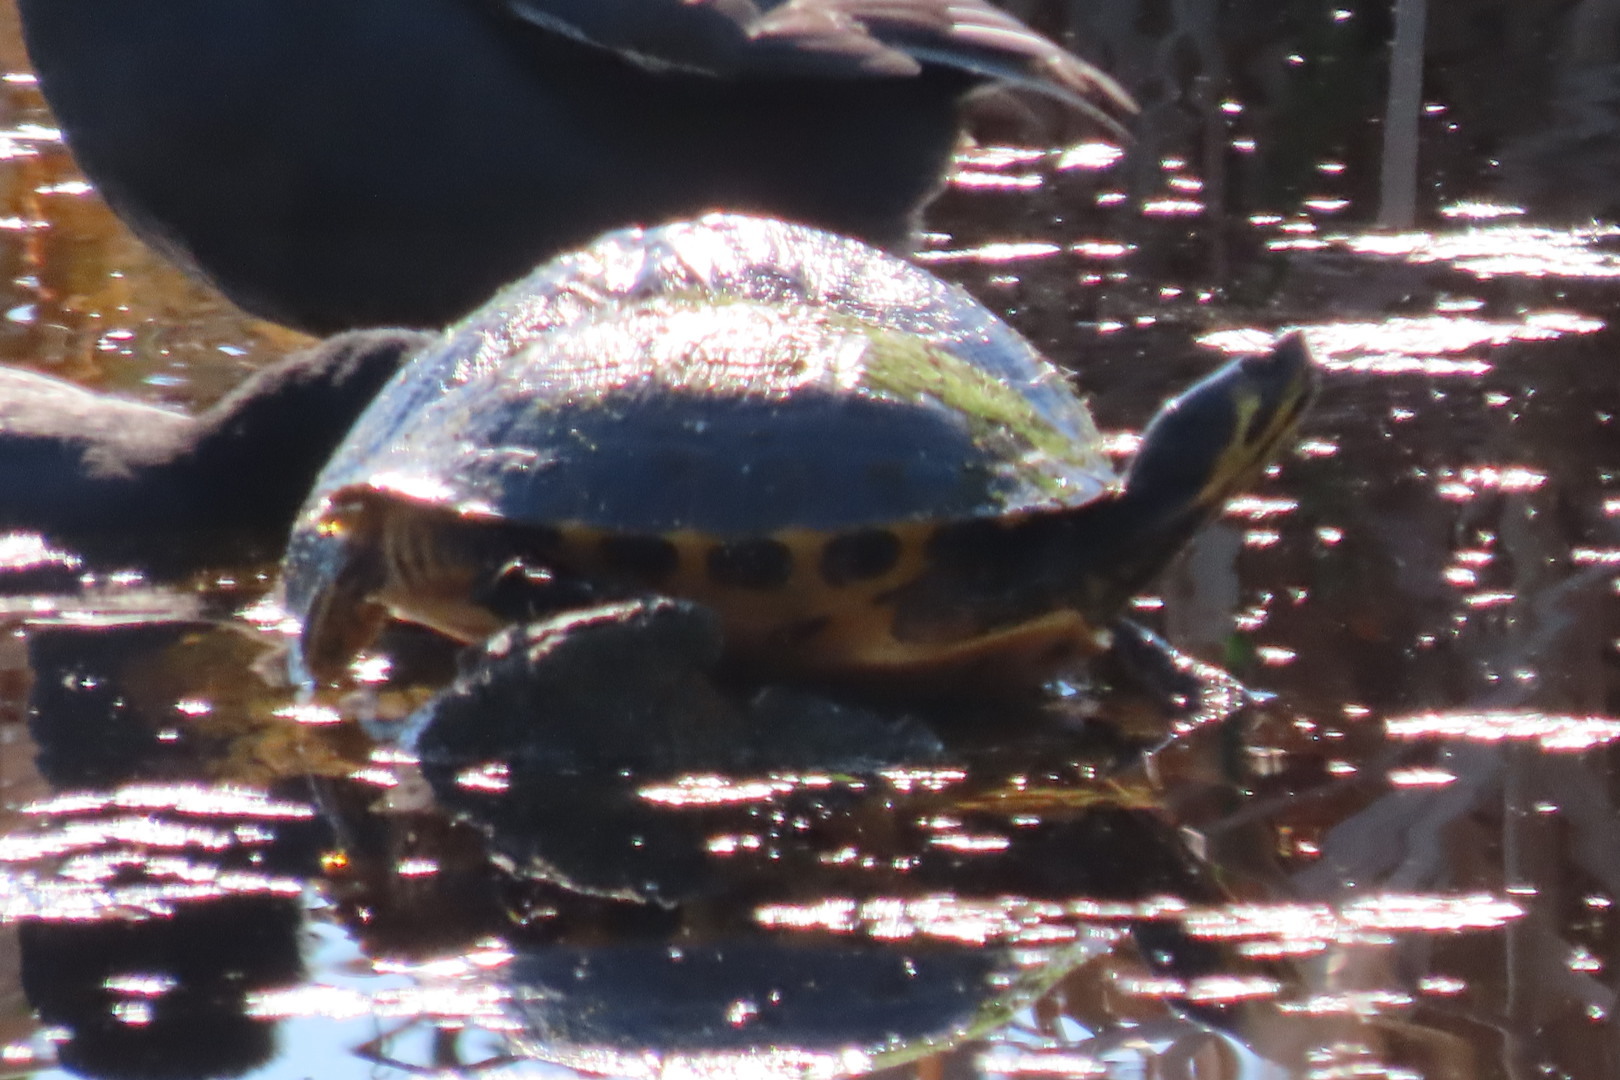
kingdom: Animalia
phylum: Chordata
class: Testudines
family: Emydidae
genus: Trachemys
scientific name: Trachemys scripta
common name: Slider
